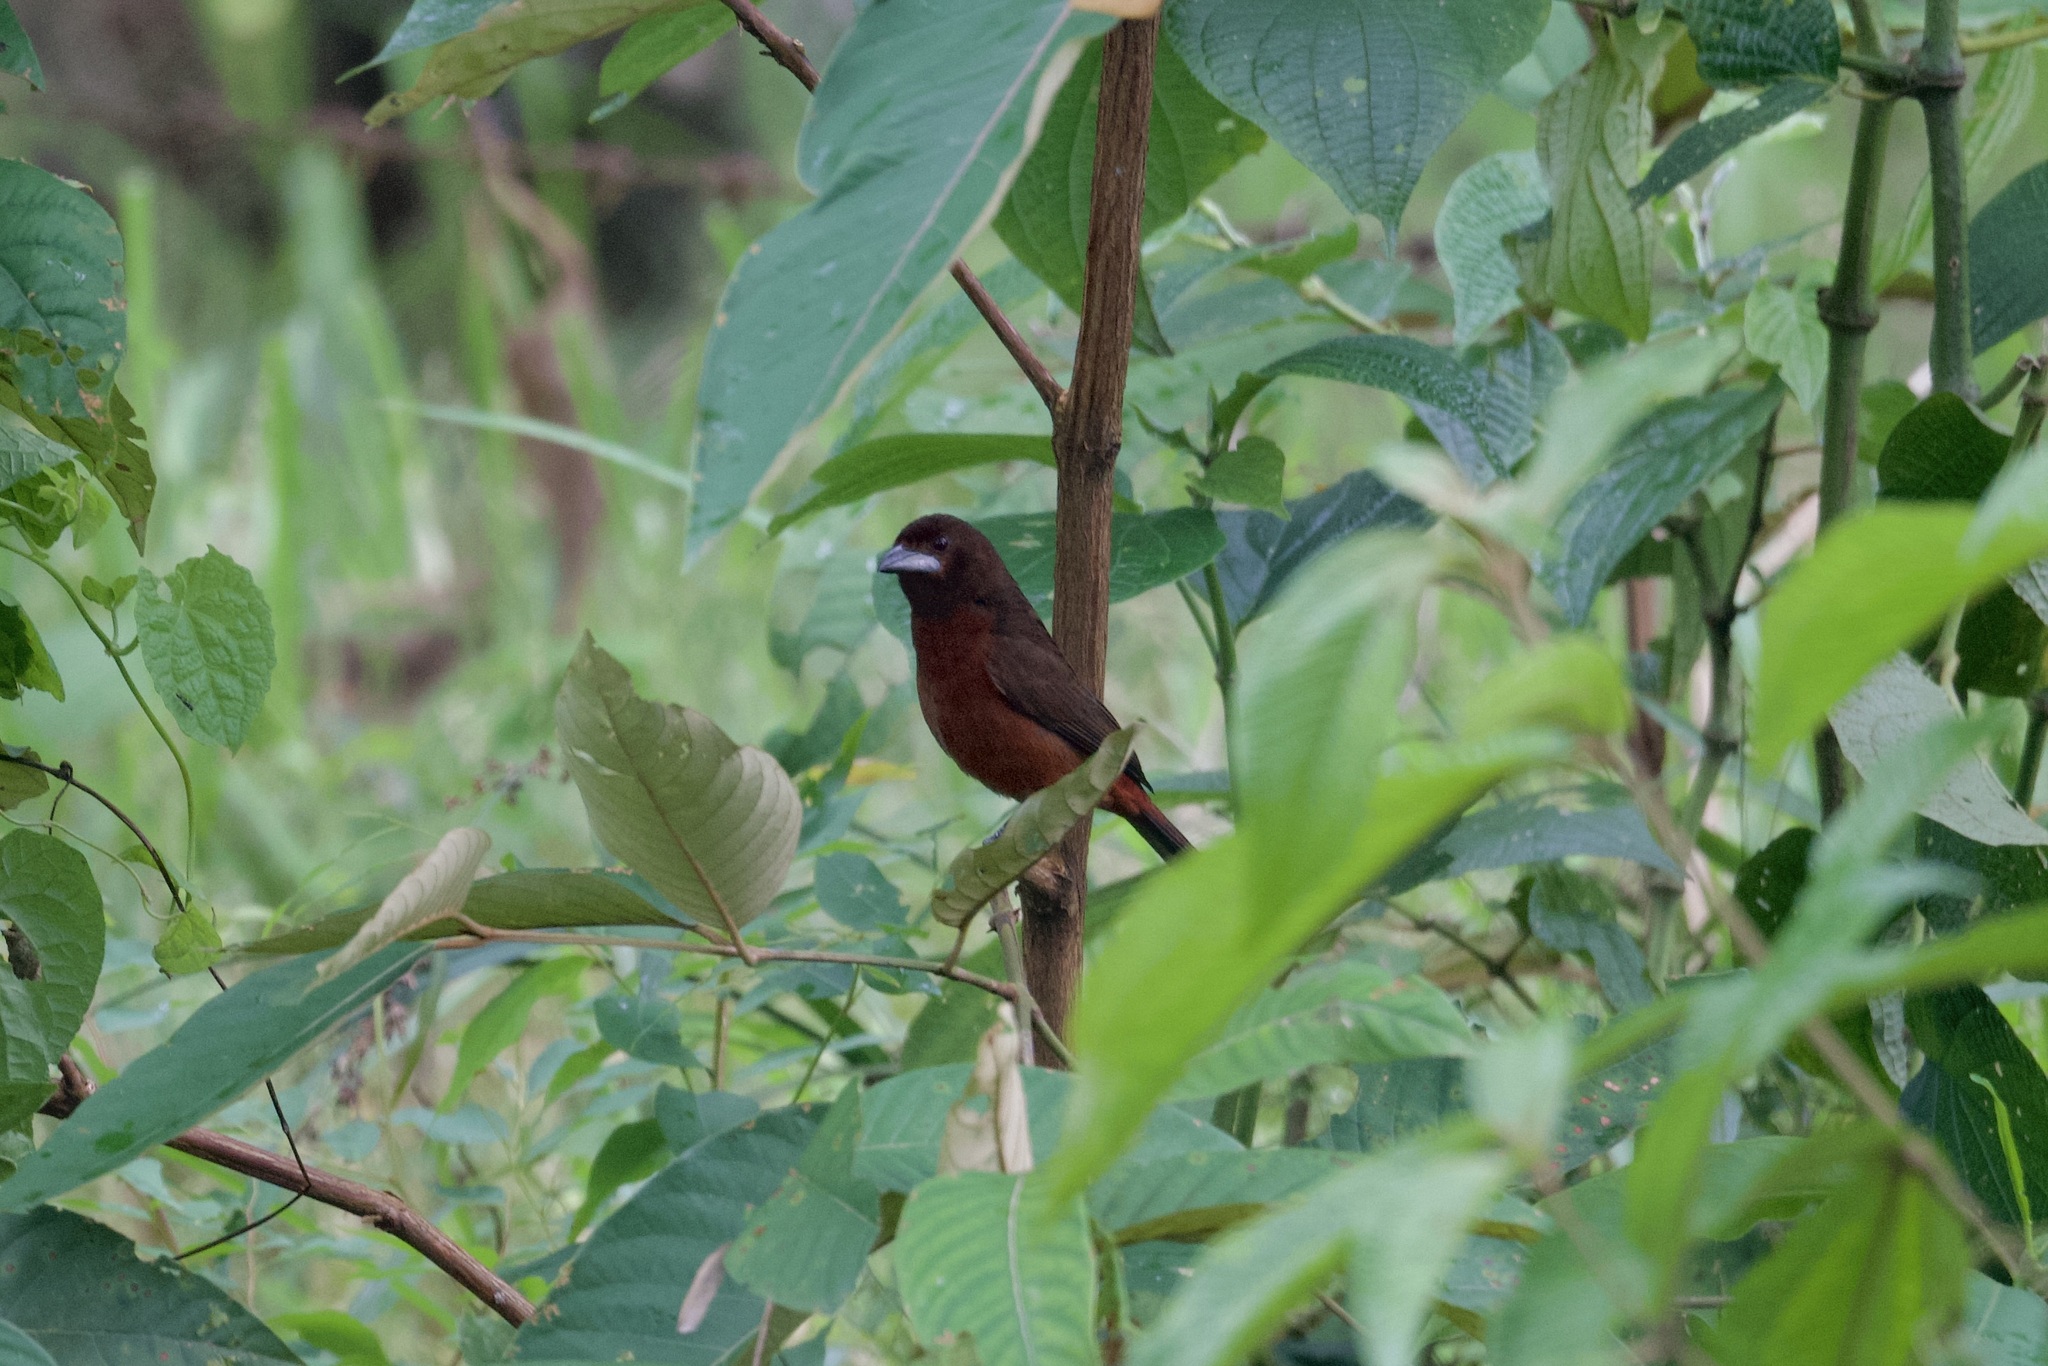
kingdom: Animalia
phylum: Chordata
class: Aves
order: Passeriformes
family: Thraupidae
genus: Ramphocelus
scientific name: Ramphocelus carbo
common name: Silver-beaked tanager
